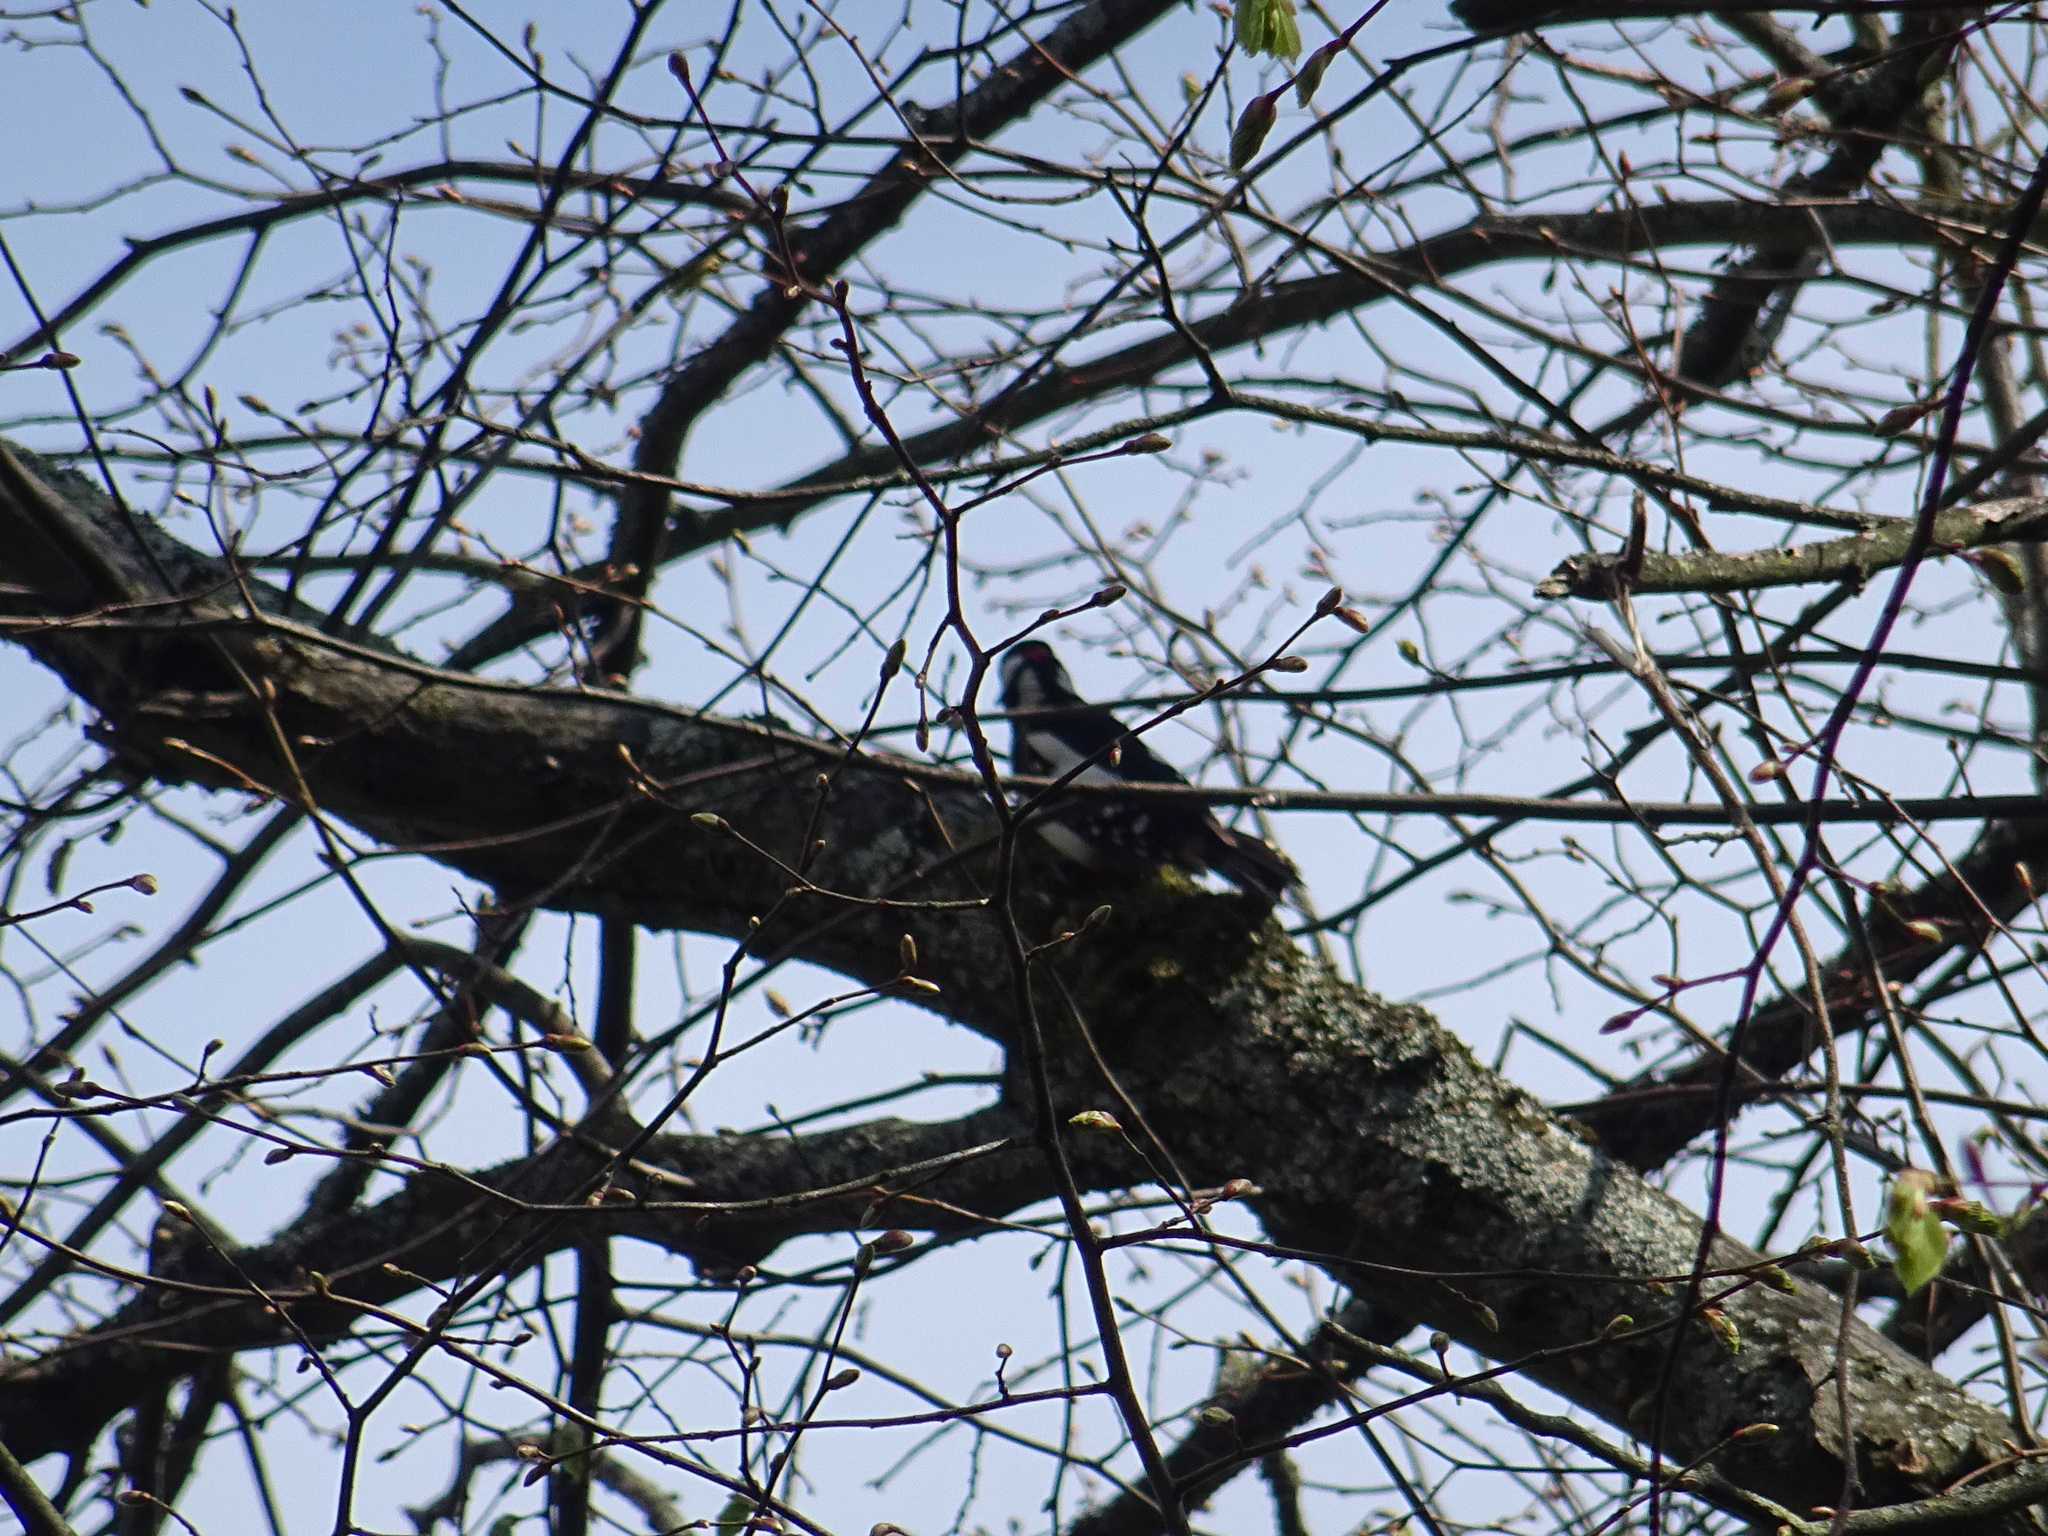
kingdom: Animalia
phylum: Chordata
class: Aves
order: Piciformes
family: Picidae
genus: Dendrocopos
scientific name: Dendrocopos major
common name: Great spotted woodpecker
